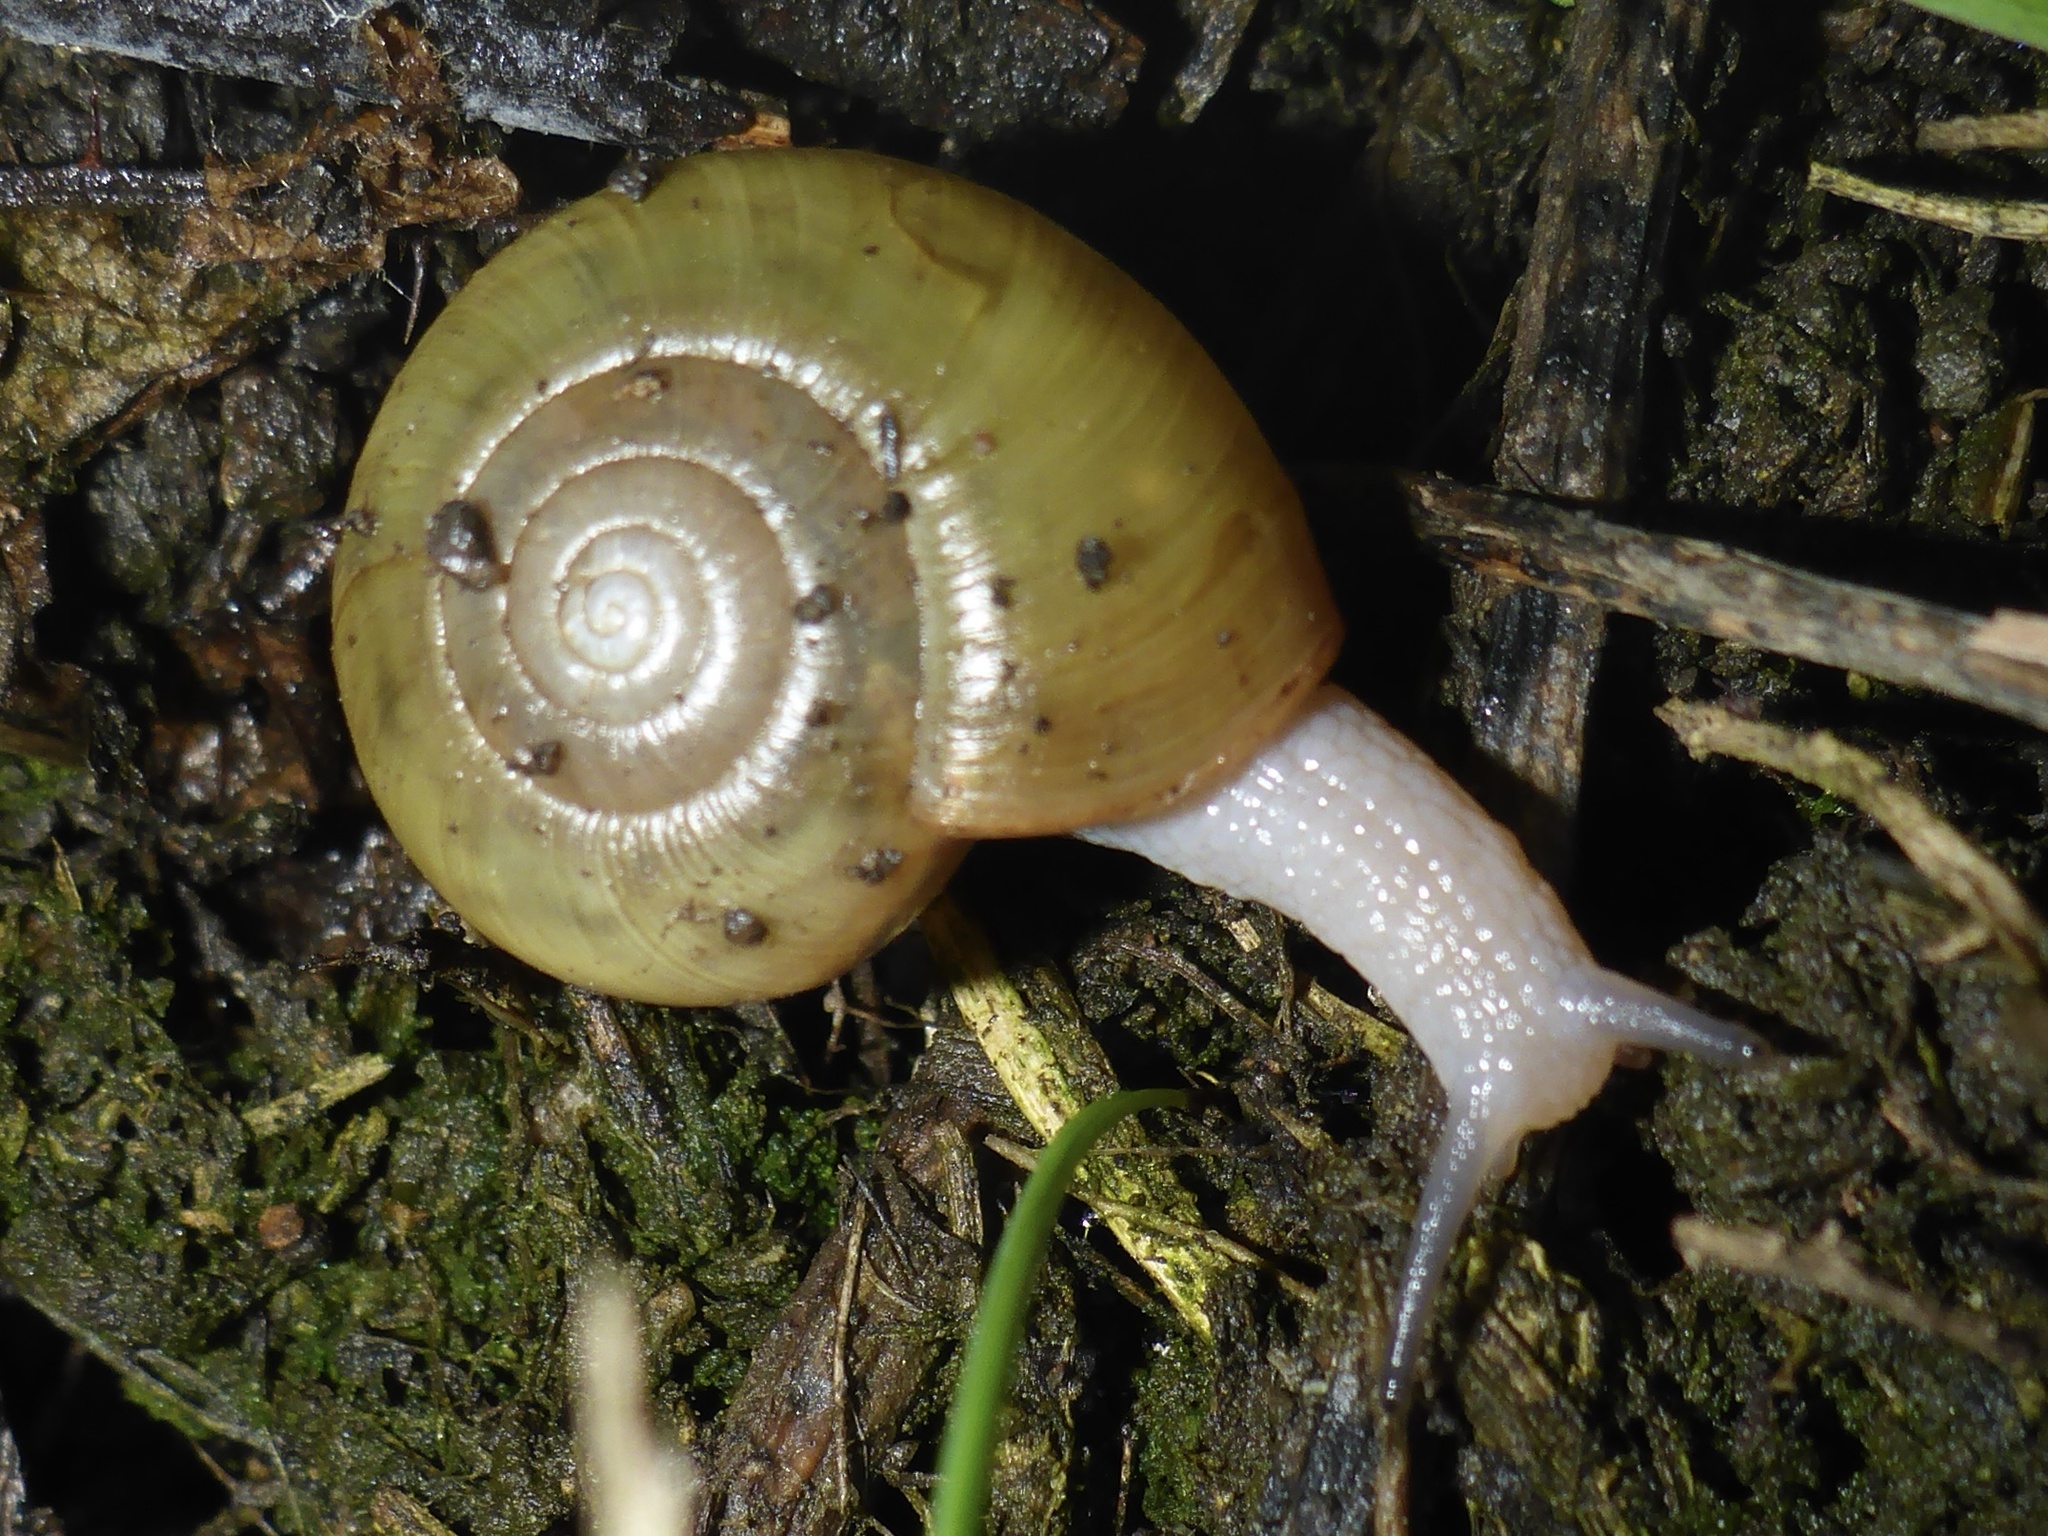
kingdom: Animalia
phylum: Mollusca
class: Gastropoda
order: Stylommatophora
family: Haplotrematidae
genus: Haplotrema
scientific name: Haplotrema minimum
